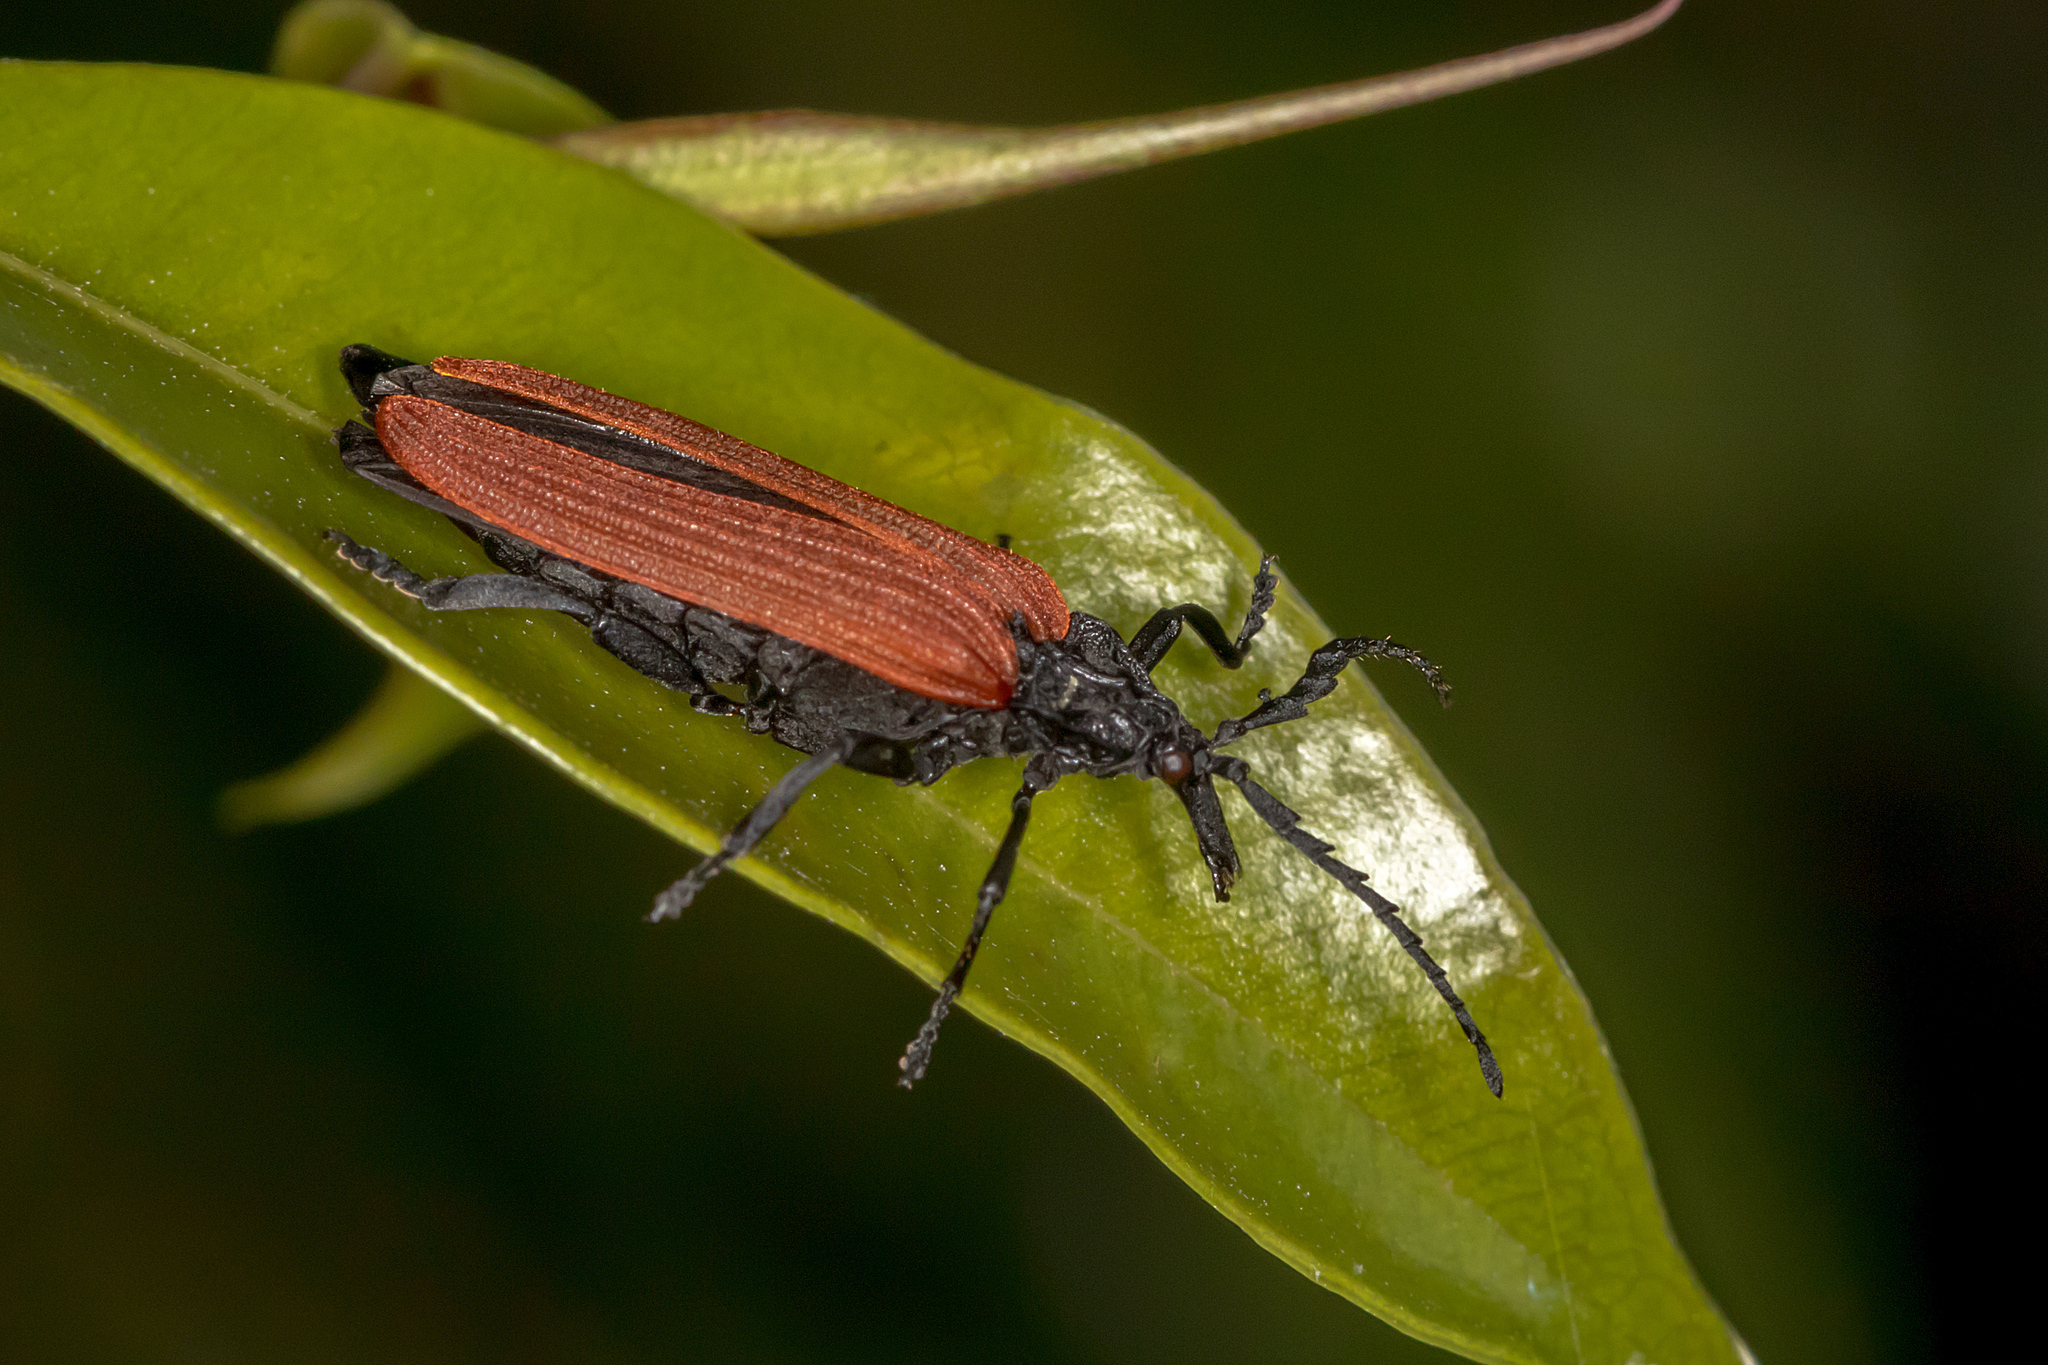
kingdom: Animalia
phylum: Arthropoda
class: Insecta
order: Coleoptera
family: Lycidae
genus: Porrostoma
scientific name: Porrostoma rhipidium
